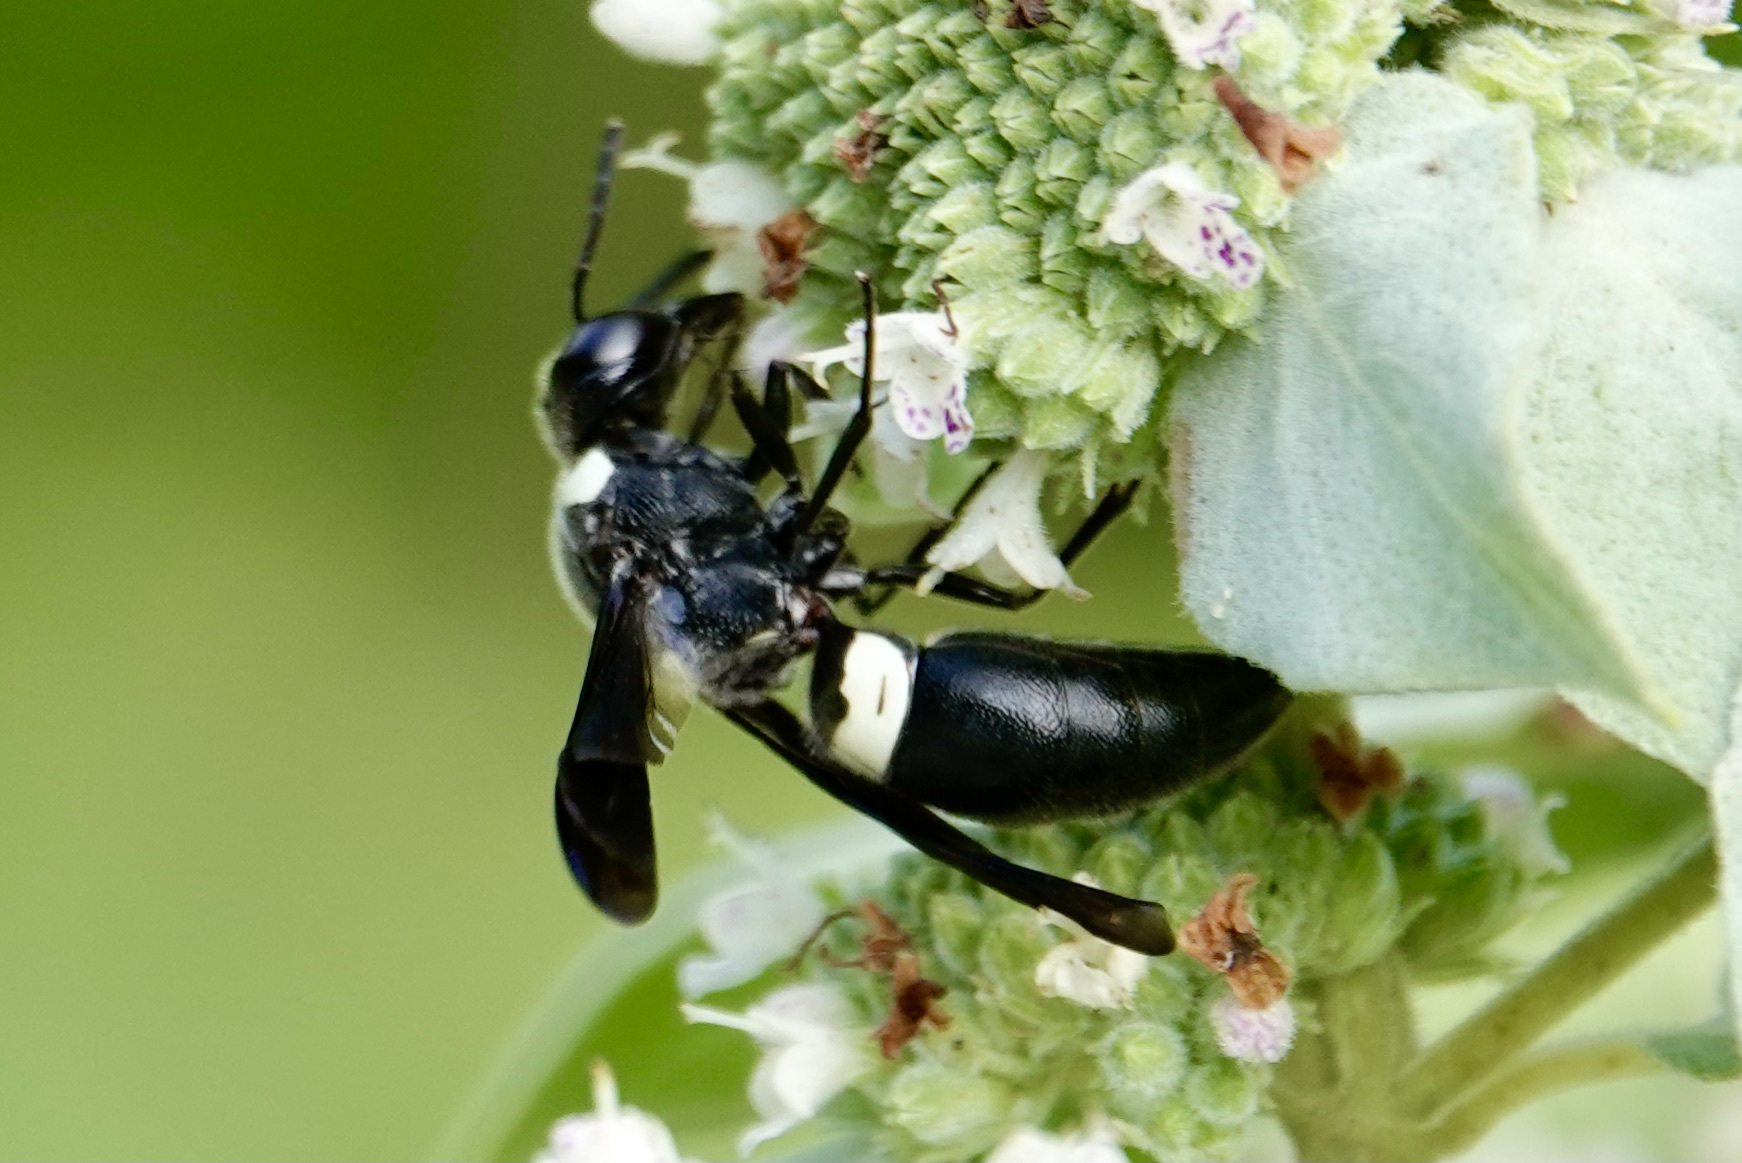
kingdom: Animalia
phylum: Arthropoda
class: Insecta
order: Hymenoptera
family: Eumenidae
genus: Monobia
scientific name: Monobia quadridens
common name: Four-toothed mason wasp
